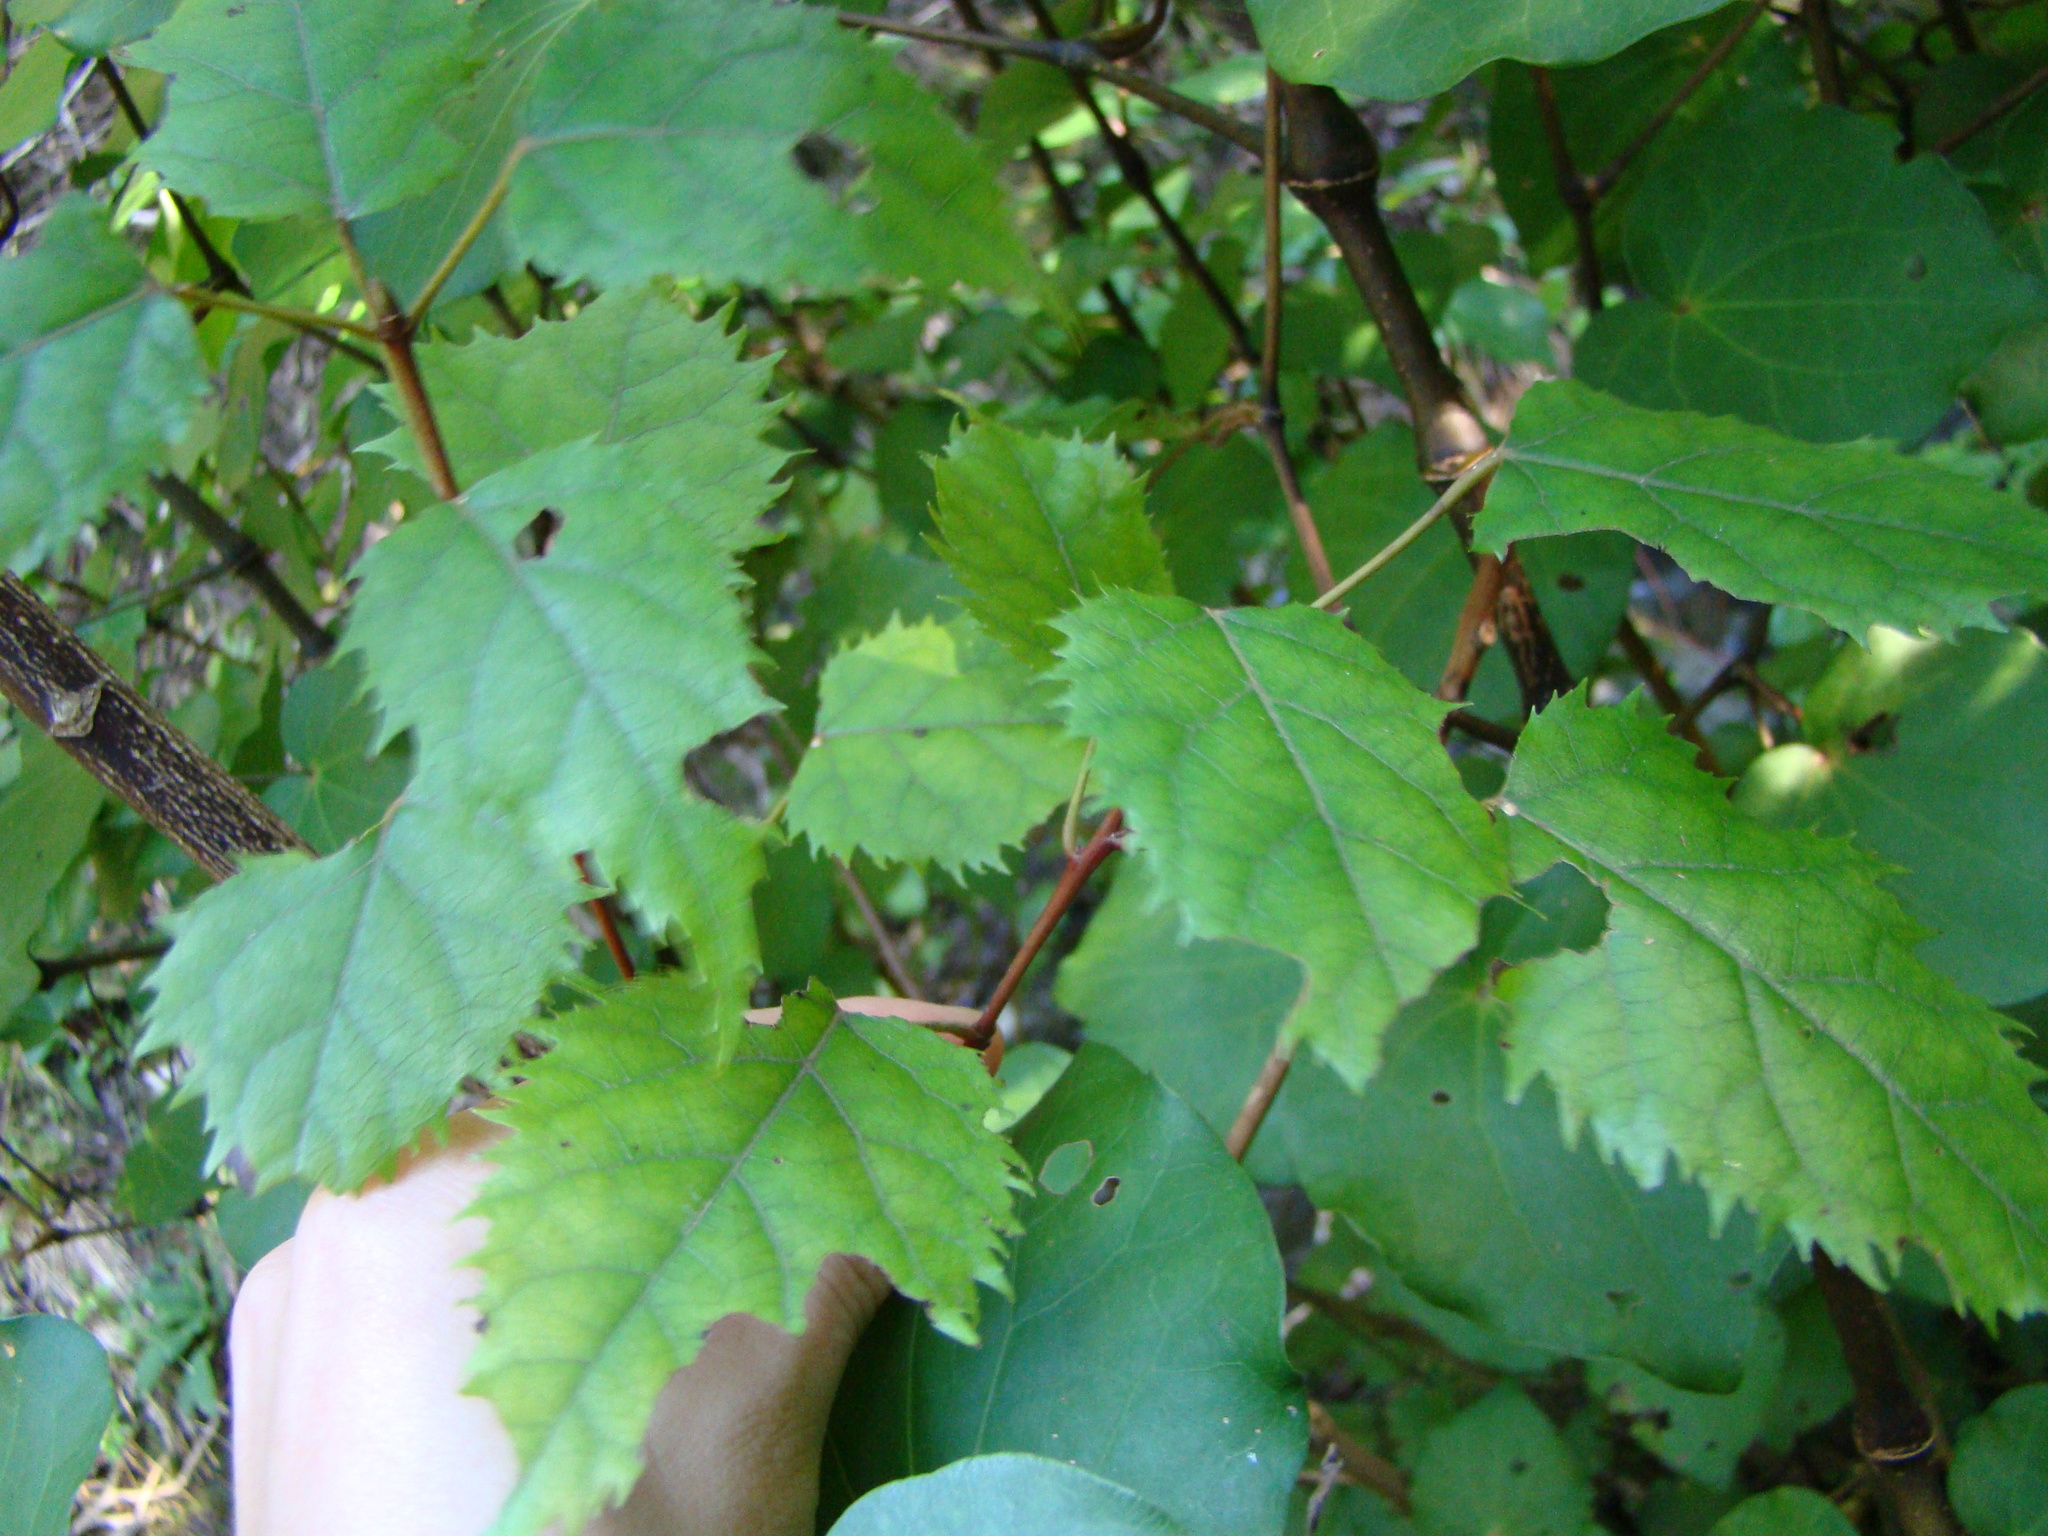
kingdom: Plantae
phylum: Tracheophyta
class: Magnoliopsida
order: Oxalidales
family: Elaeocarpaceae
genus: Aristotelia
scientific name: Aristotelia serrata
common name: New zealand wineberry
